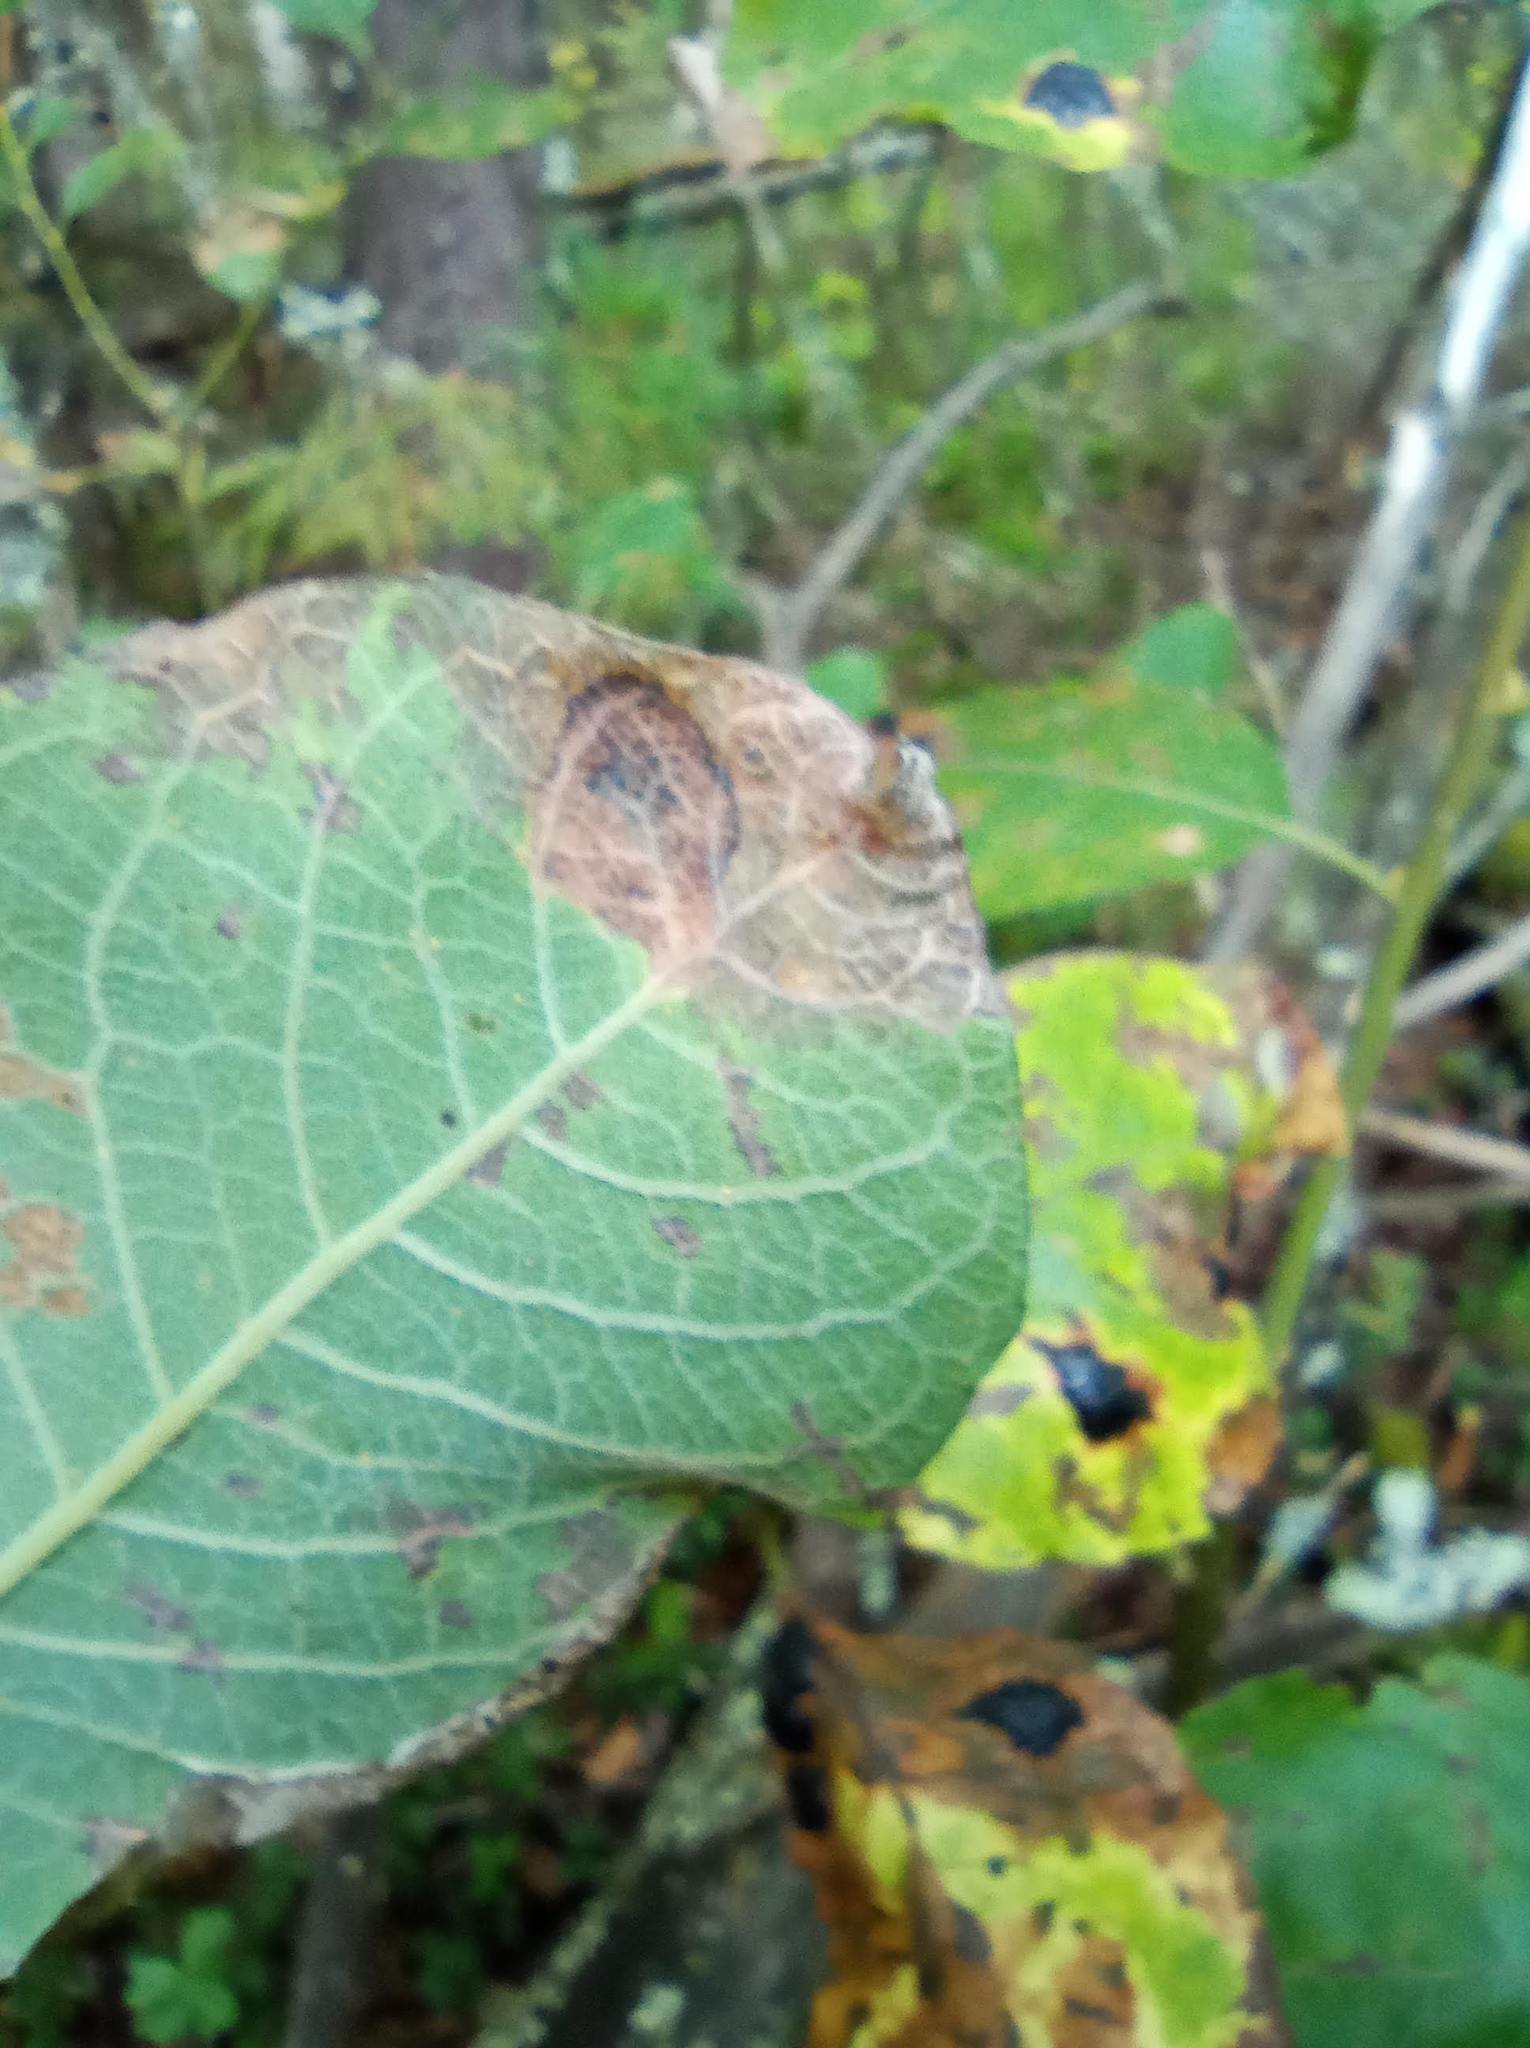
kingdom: Fungi
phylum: Ascomycota
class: Leotiomycetes
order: Rhytismatales
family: Rhytismataceae
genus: Rhytisma
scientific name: Rhytisma salicinum
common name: Willow tarspot
